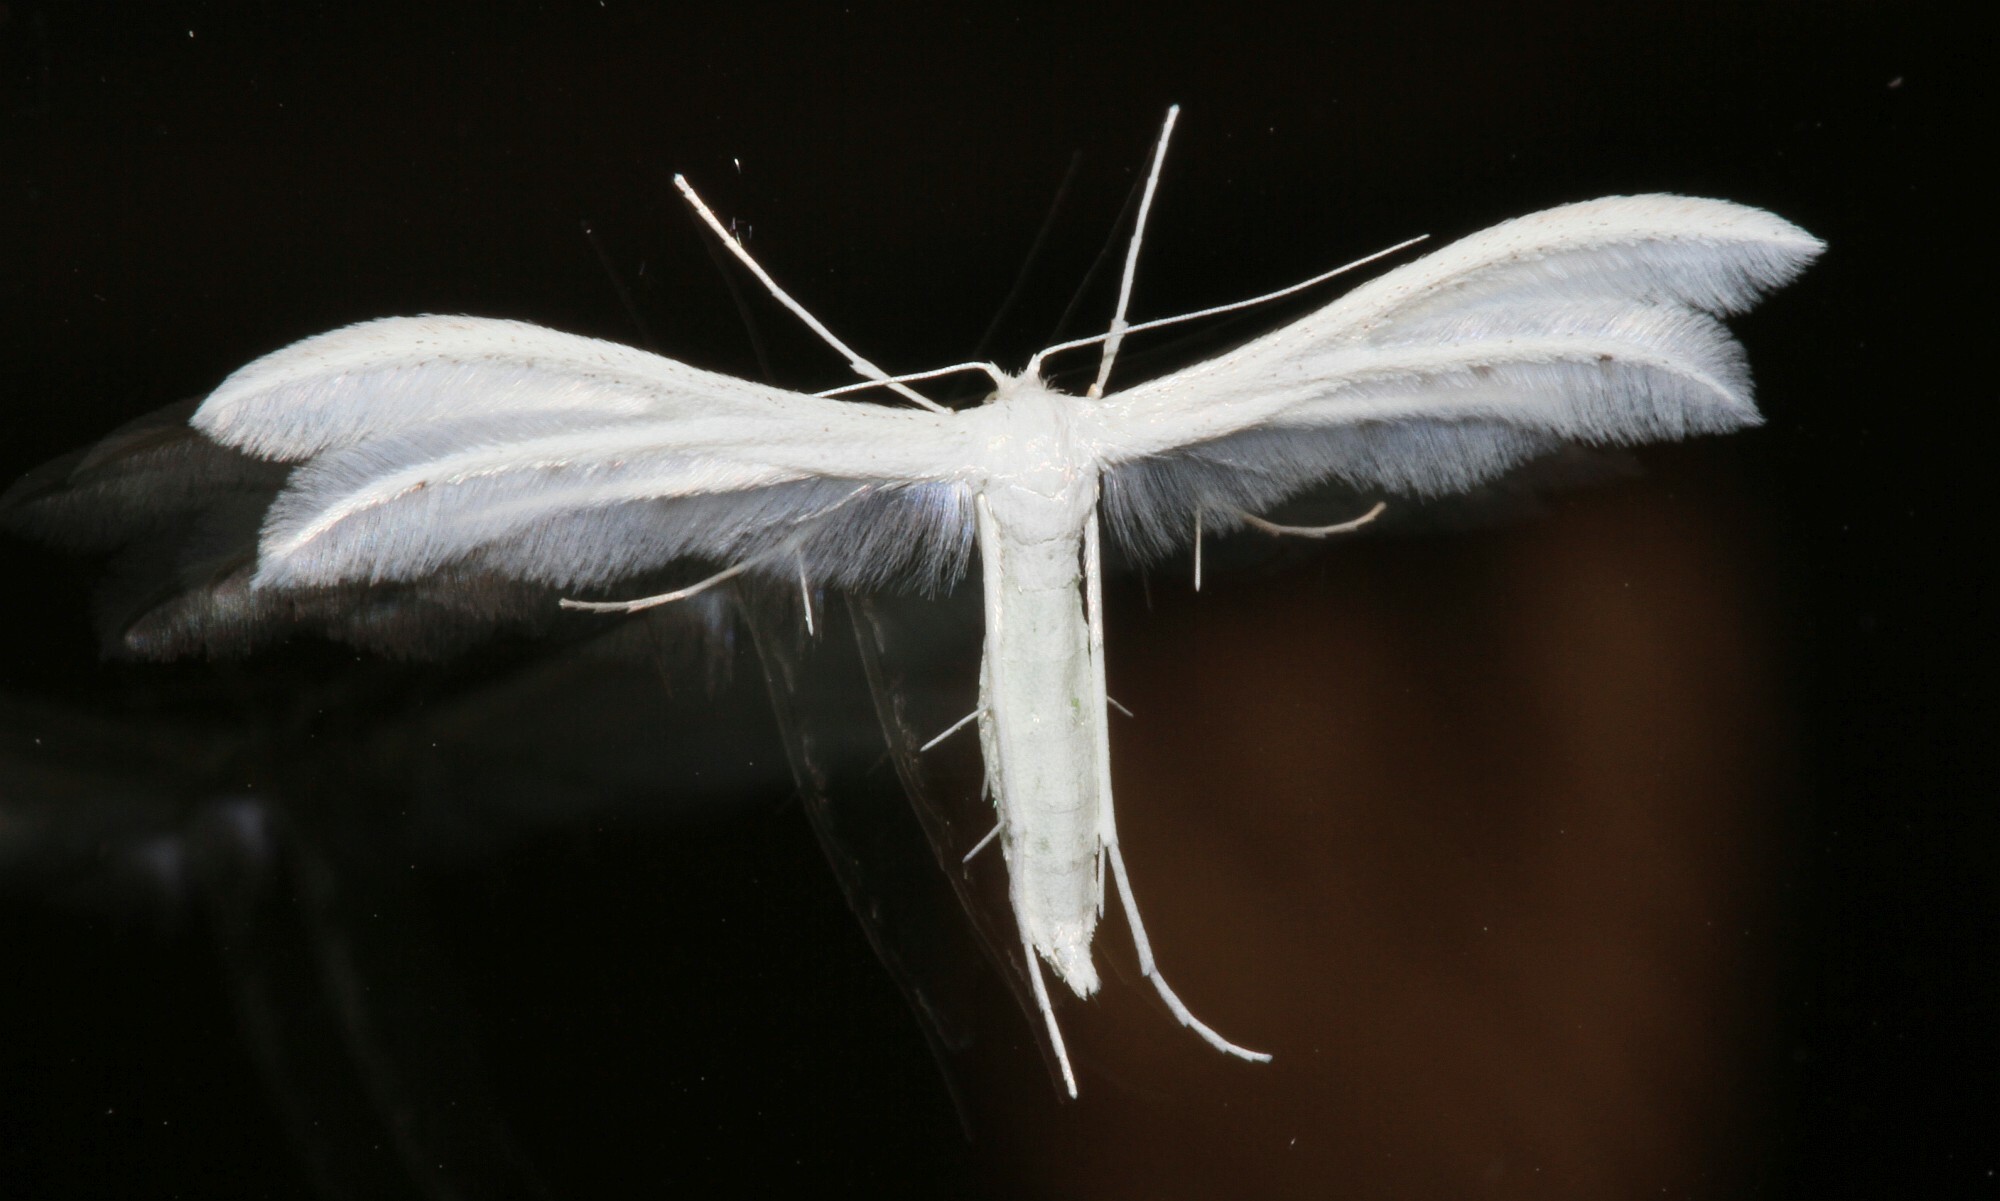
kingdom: Animalia
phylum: Arthropoda
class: Insecta
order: Lepidoptera
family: Pterophoridae
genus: Pterophorus
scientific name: Pterophorus pentadactyla
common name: White plume moth
